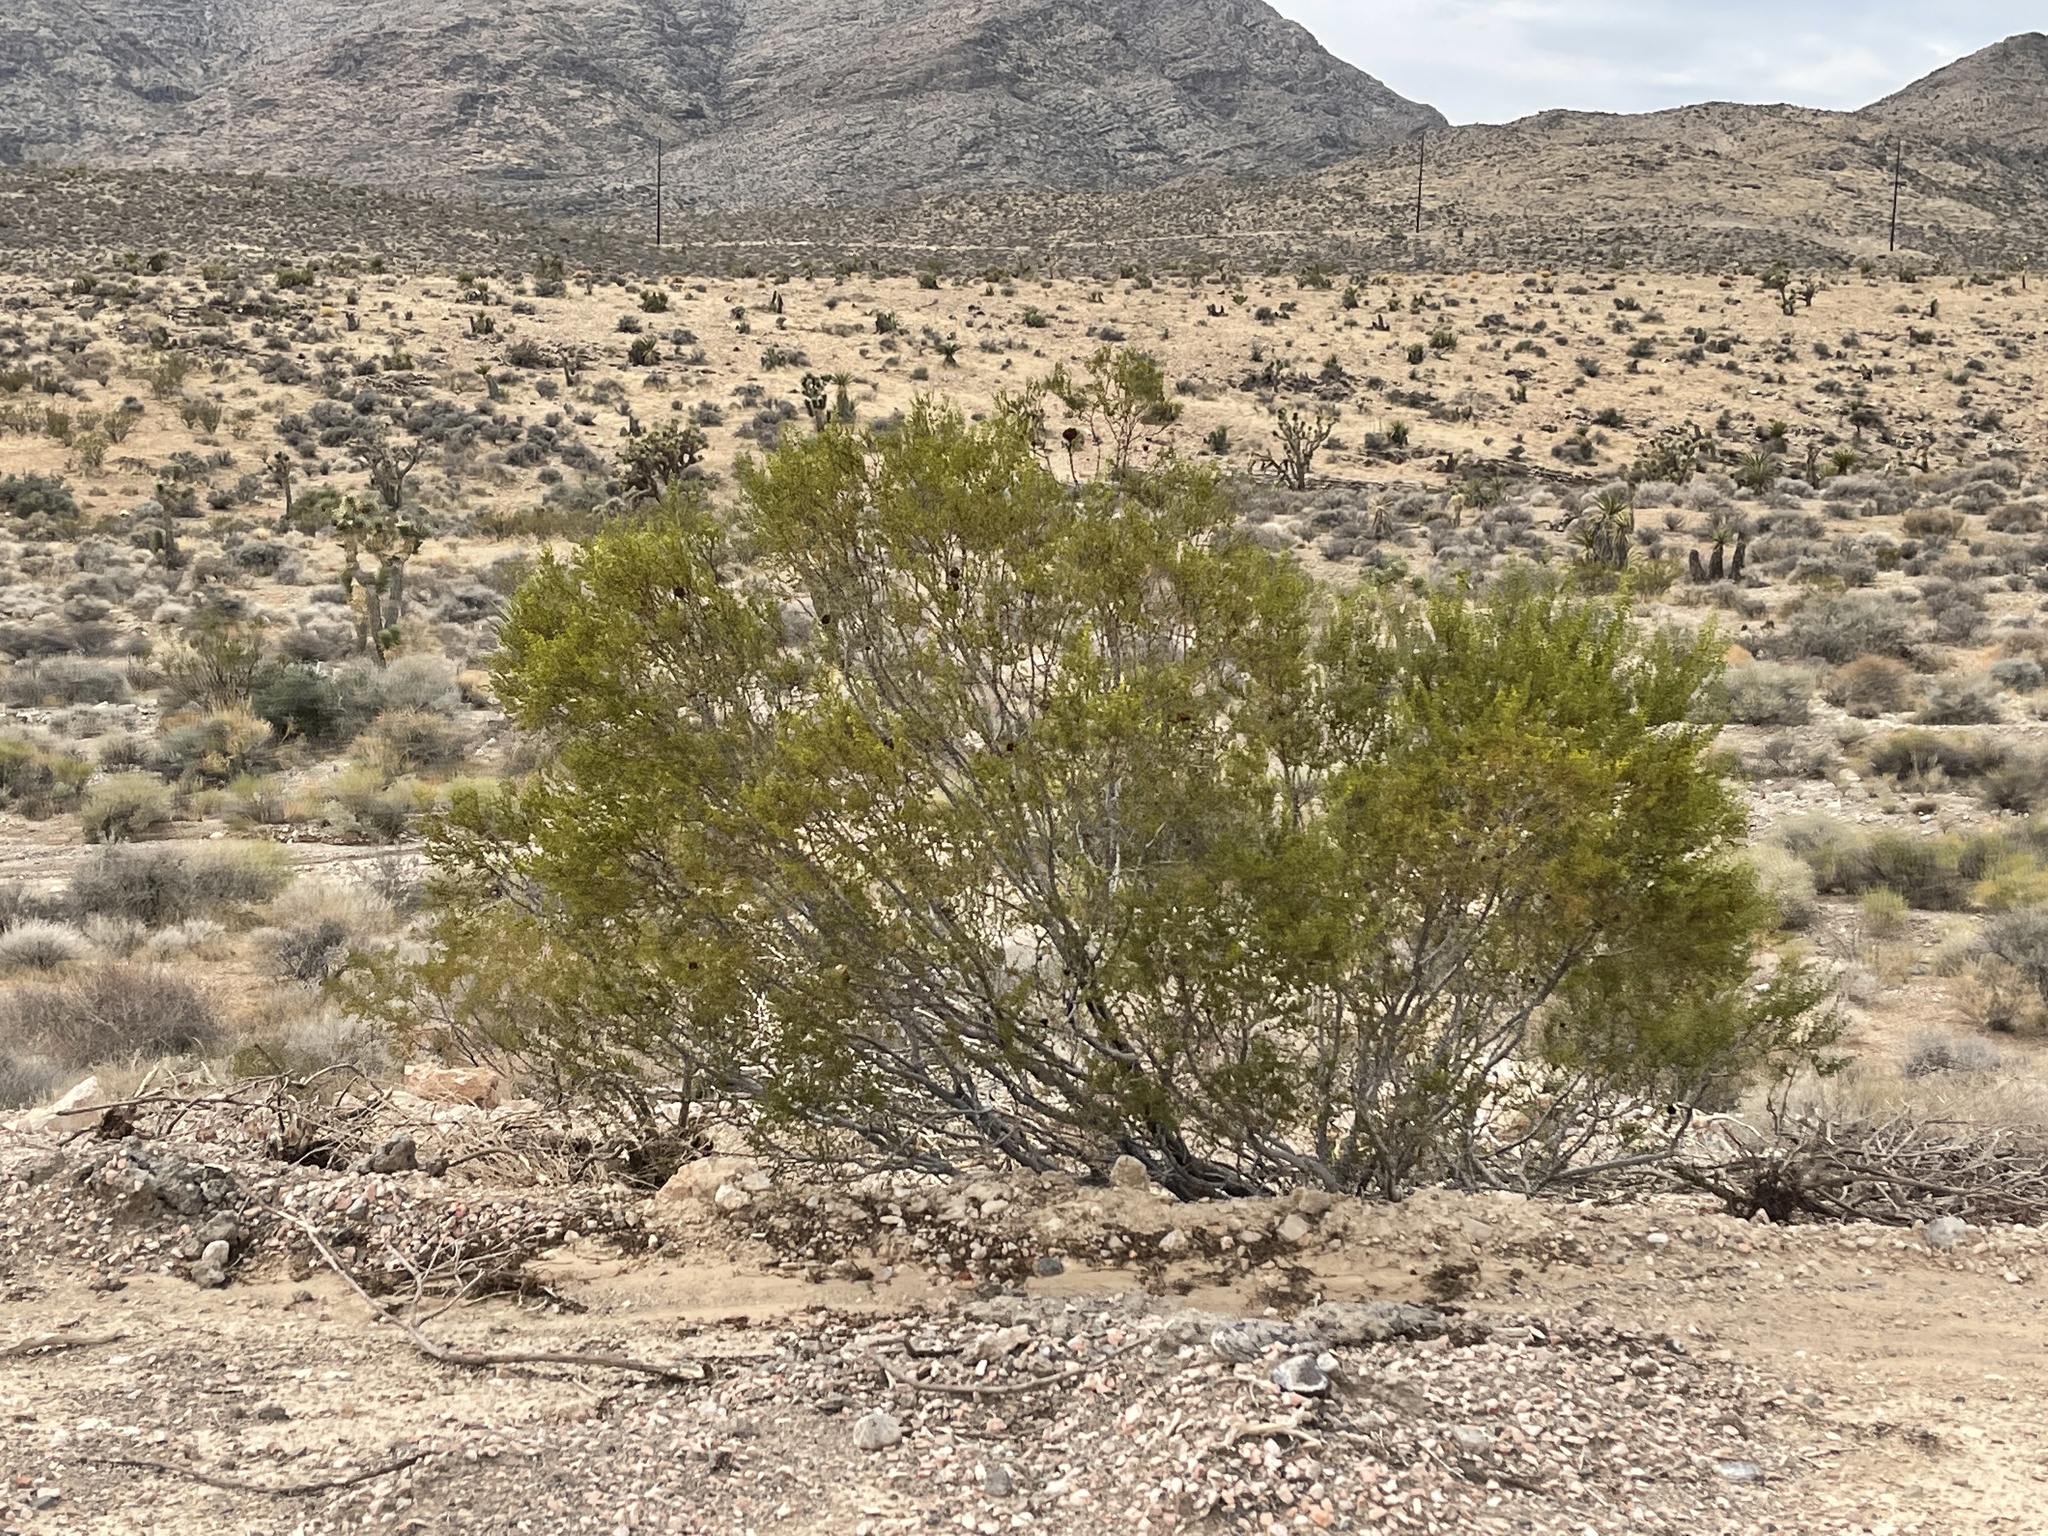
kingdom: Plantae
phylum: Tracheophyta
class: Magnoliopsida
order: Zygophyllales
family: Zygophyllaceae
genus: Larrea
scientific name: Larrea tridentata
